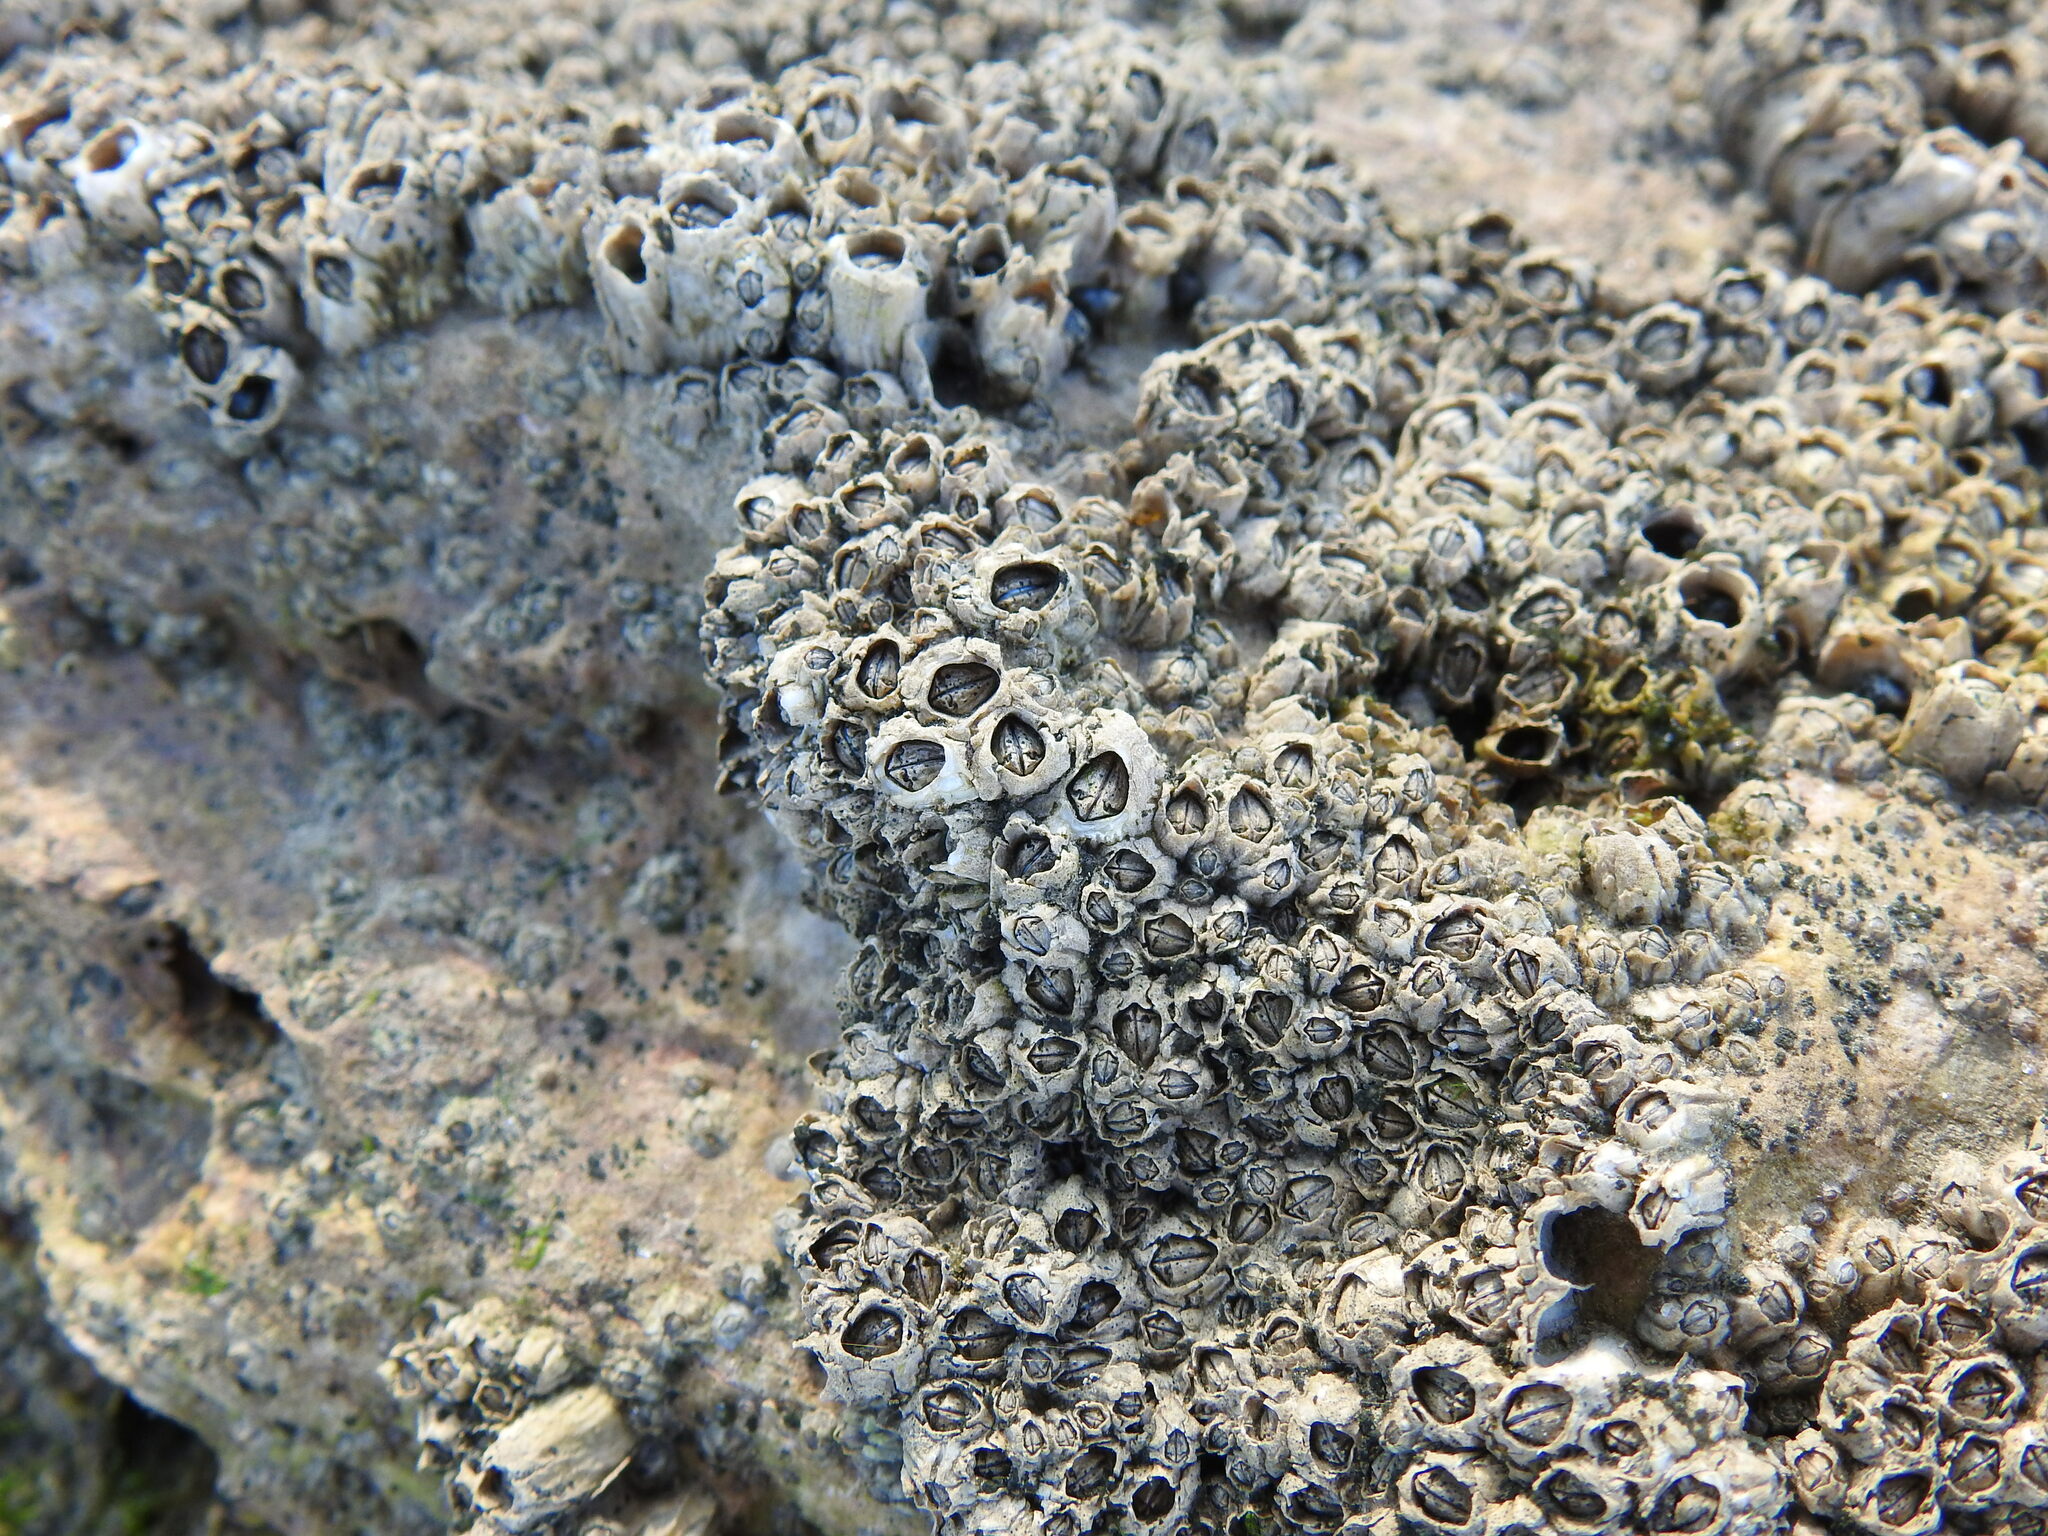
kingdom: Animalia
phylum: Arthropoda
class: Maxillopoda
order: Sessilia
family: Chthamalidae
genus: Chthamalus
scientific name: Chthamalus montagui
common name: Montagu's stellate barnacle
